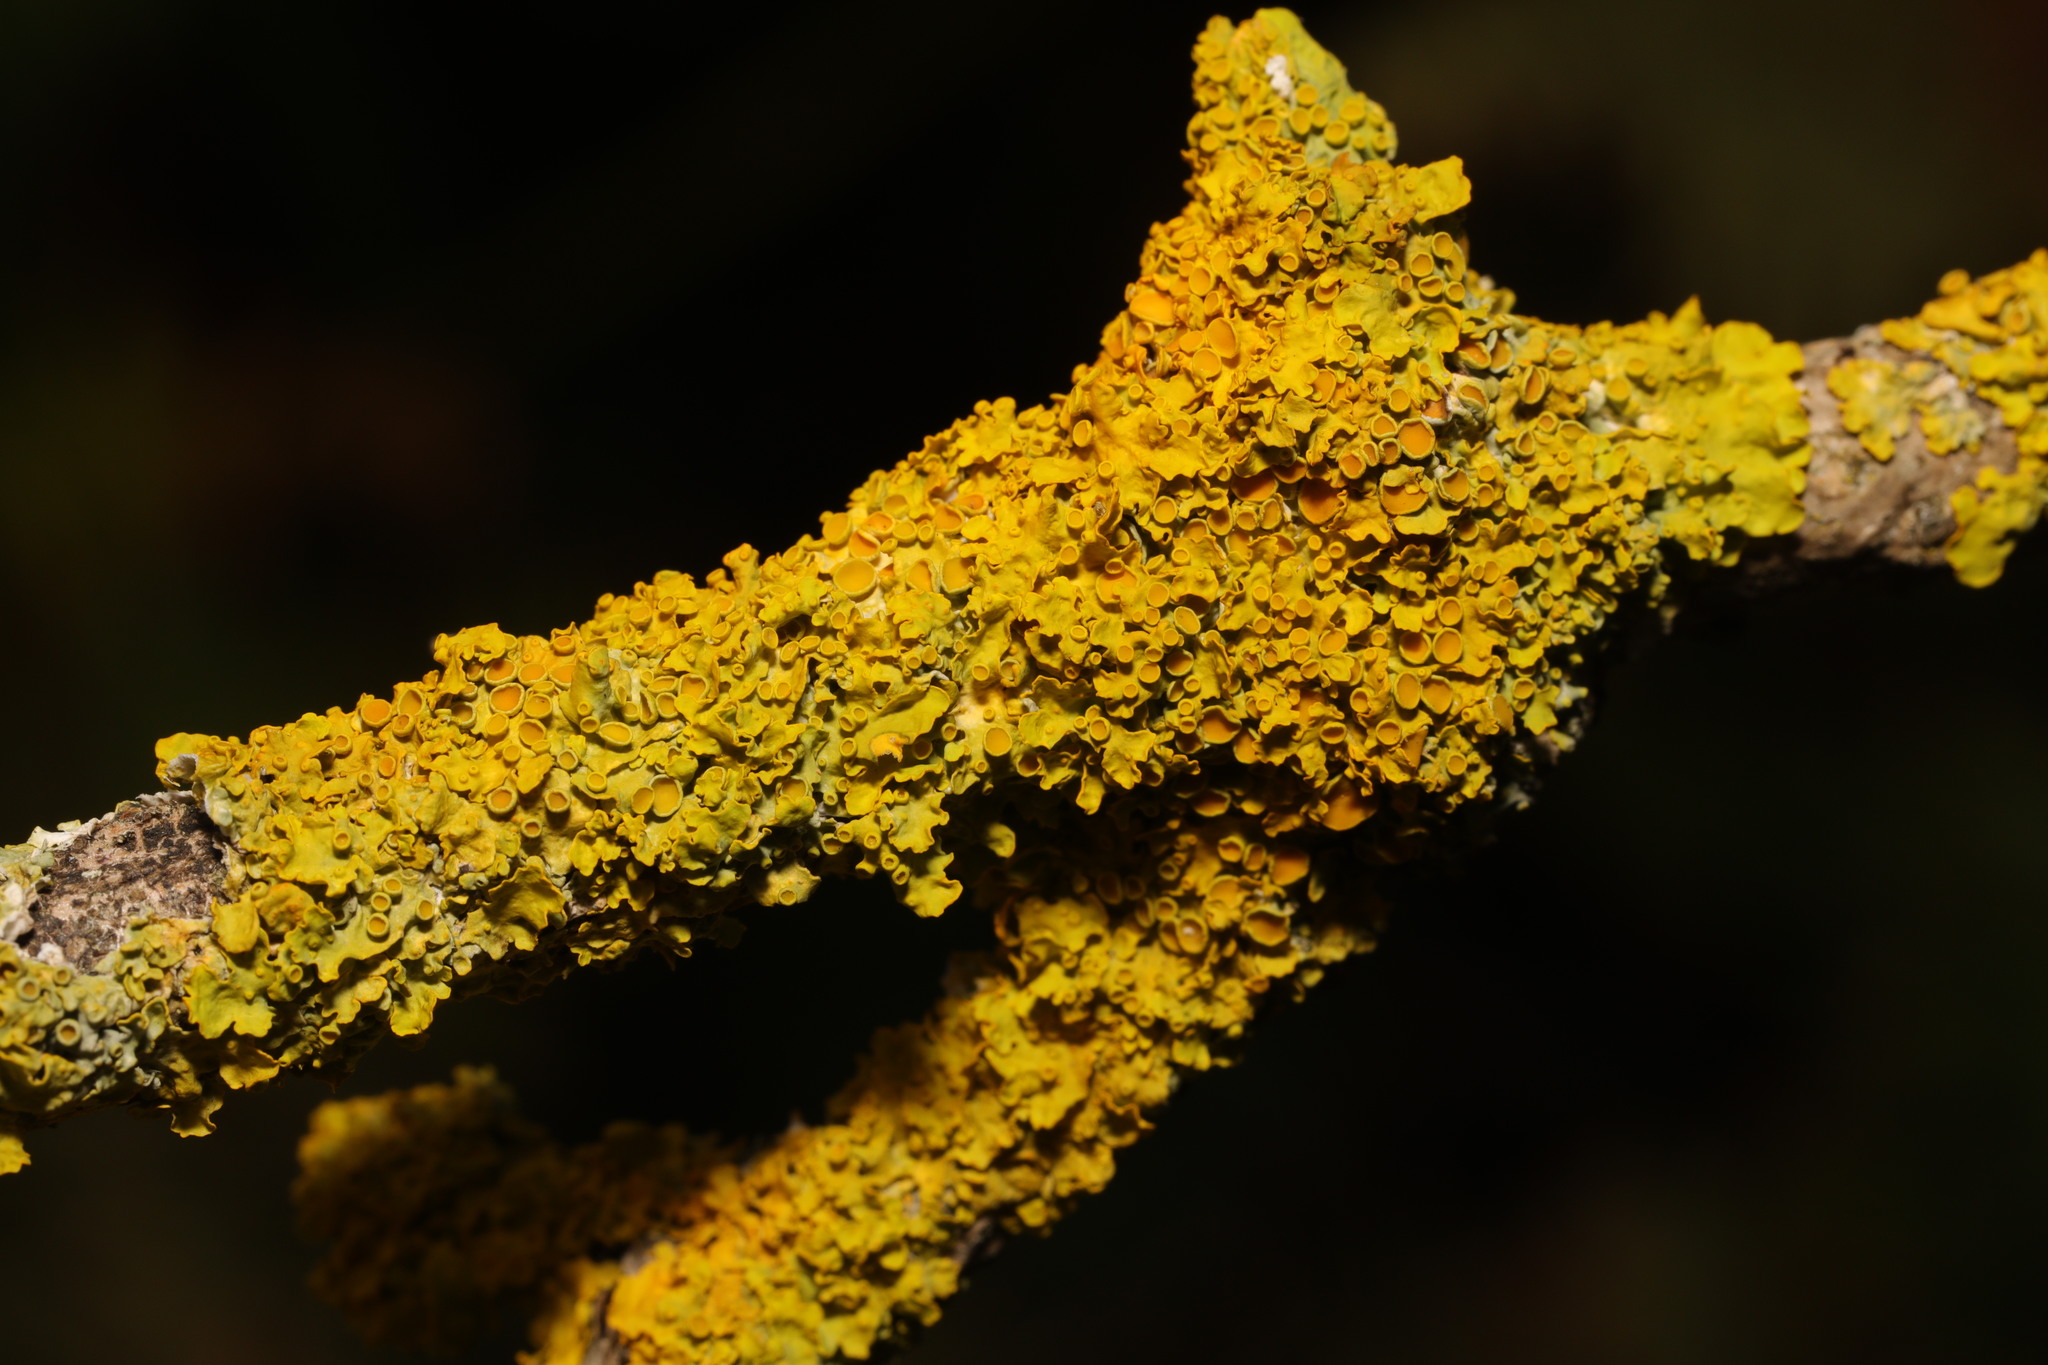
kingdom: Fungi
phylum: Ascomycota
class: Lecanoromycetes
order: Teloschistales
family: Teloschistaceae
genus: Xanthoria
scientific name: Xanthoria parietina
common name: Common orange lichen
